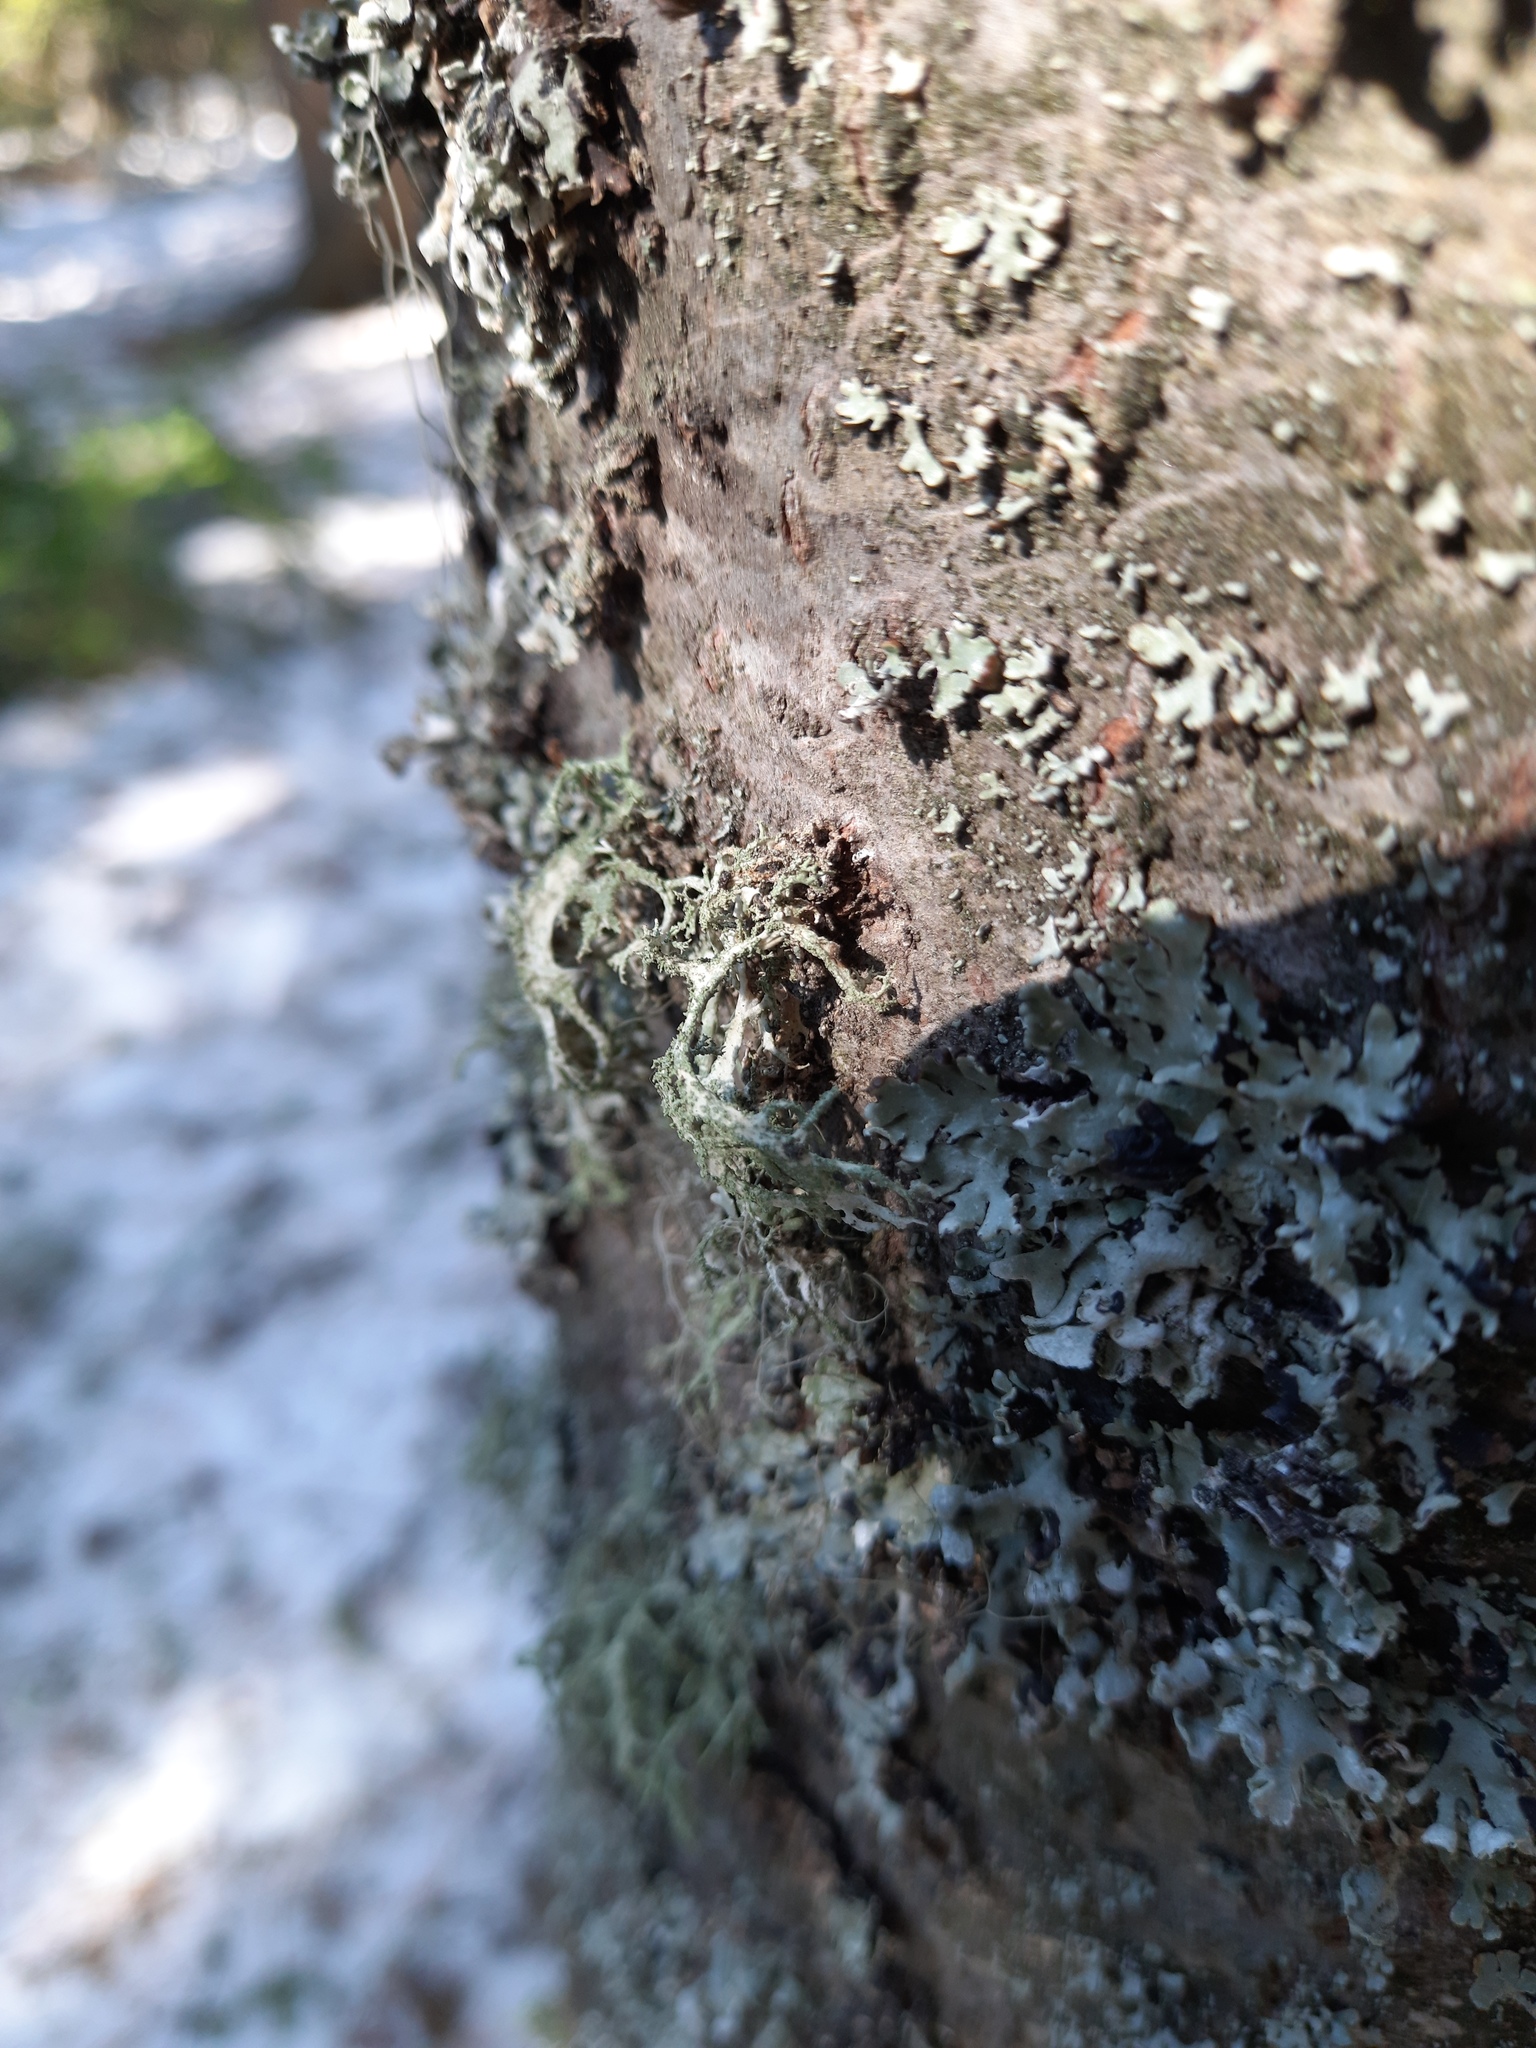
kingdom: Fungi
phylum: Ascomycota
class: Lecanoromycetes
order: Lecanorales
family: Parmeliaceae
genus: Evernia
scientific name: Evernia mesomorpha
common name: Boreal oak moss lichen
